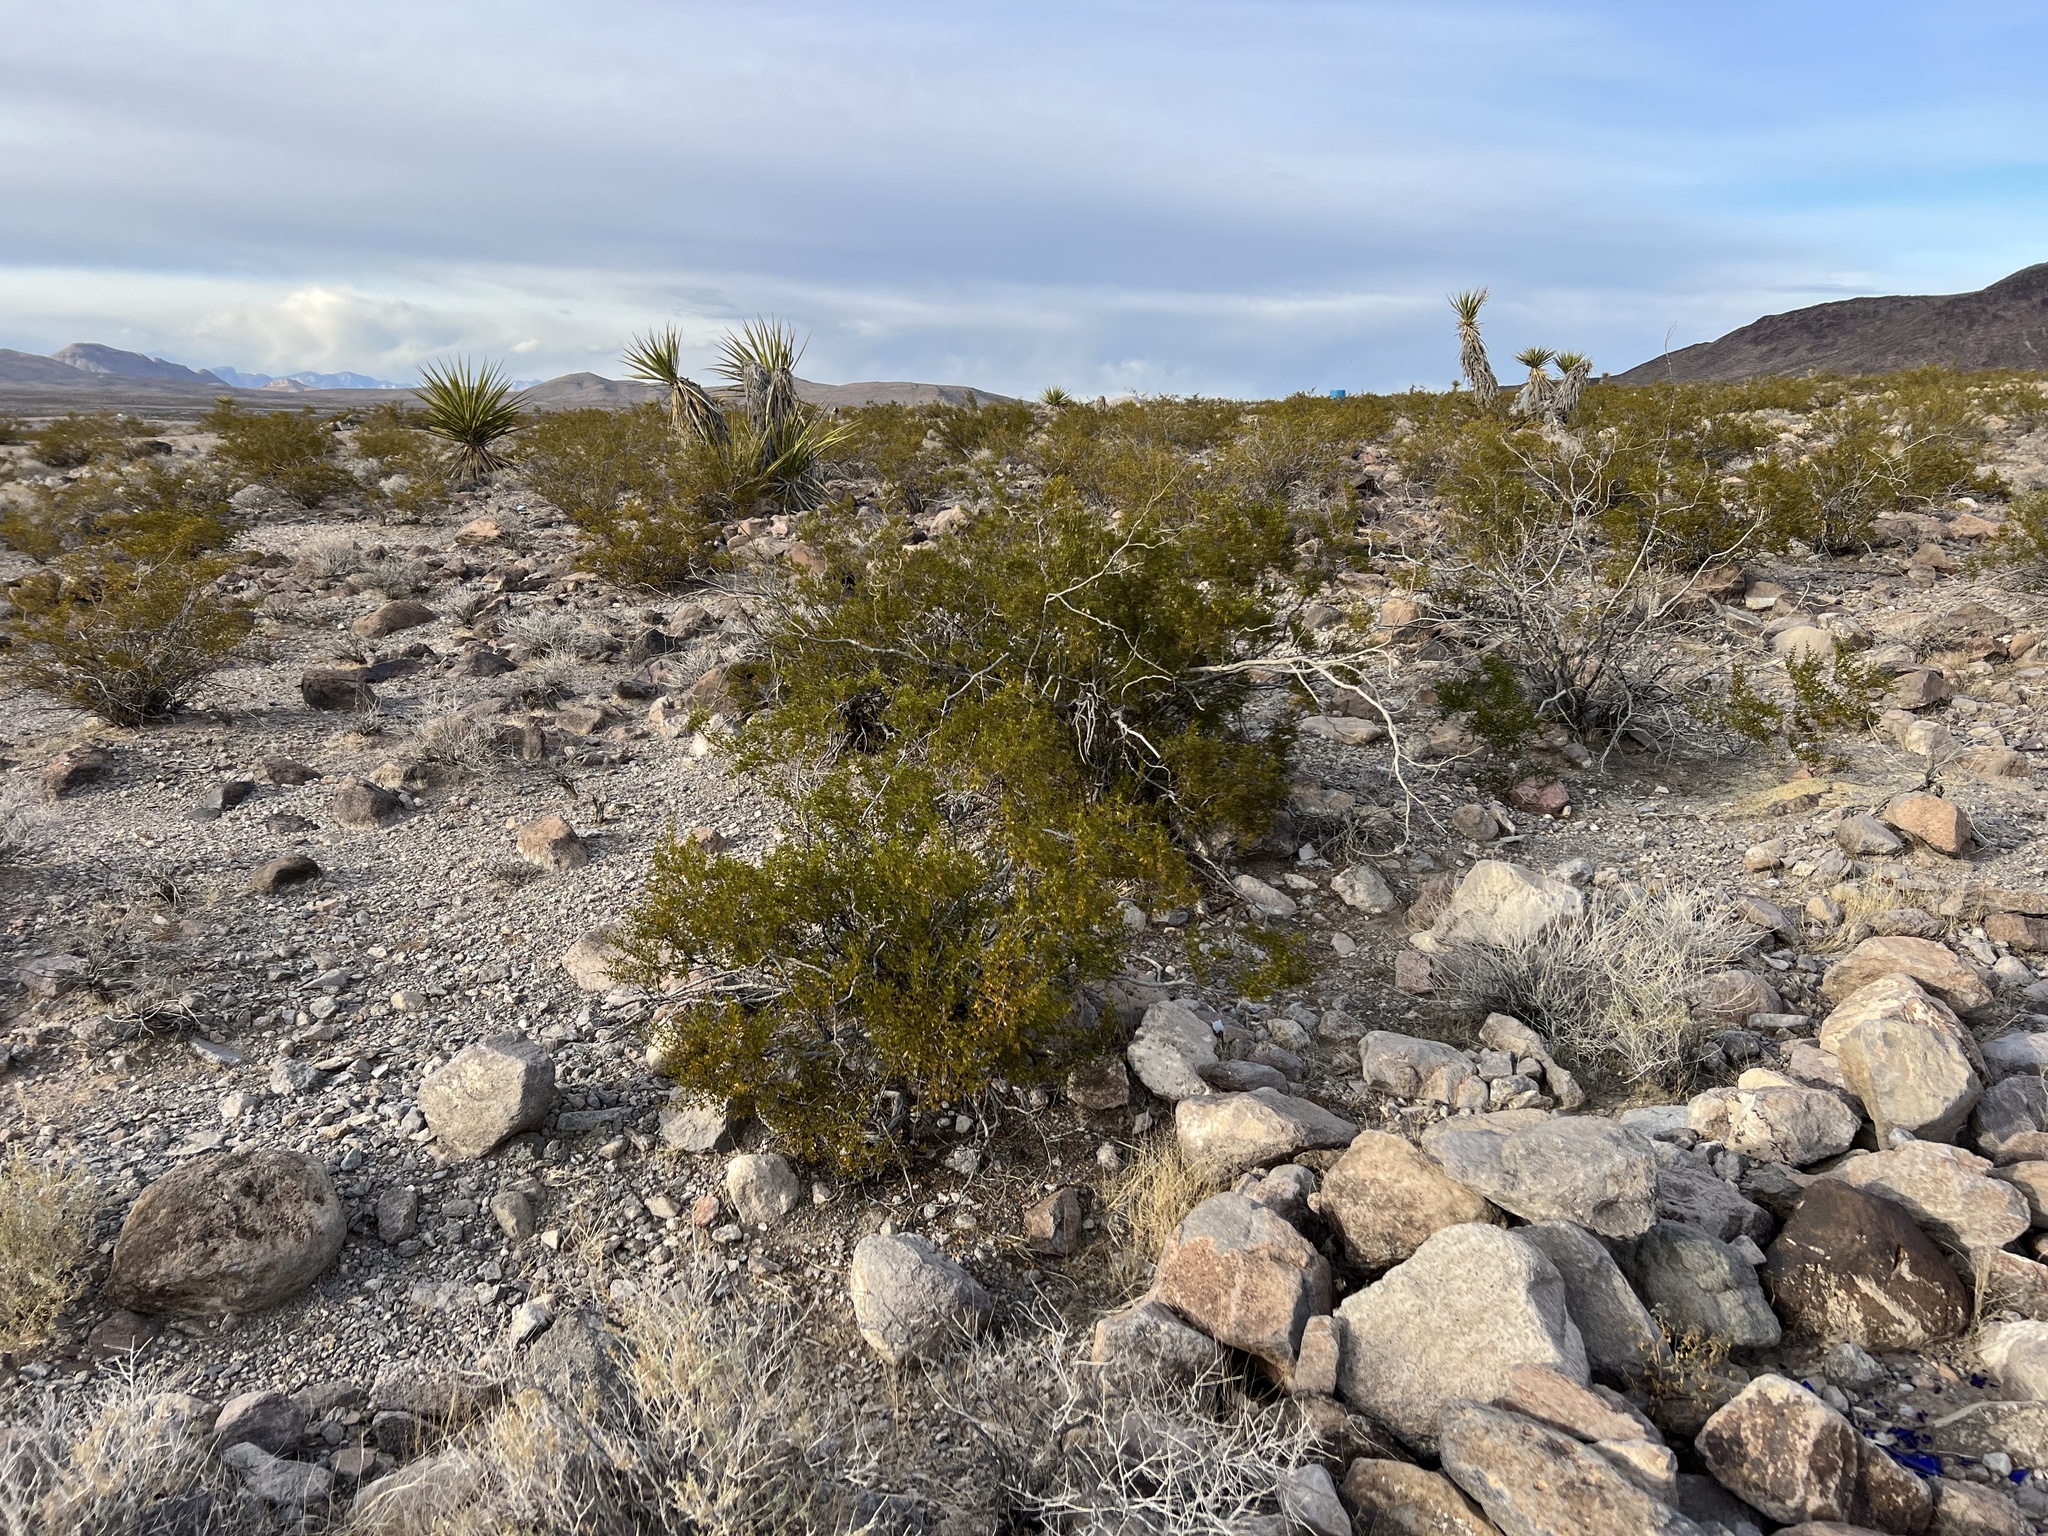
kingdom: Plantae
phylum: Tracheophyta
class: Magnoliopsida
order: Zygophyllales
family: Zygophyllaceae
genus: Larrea
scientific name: Larrea tridentata
